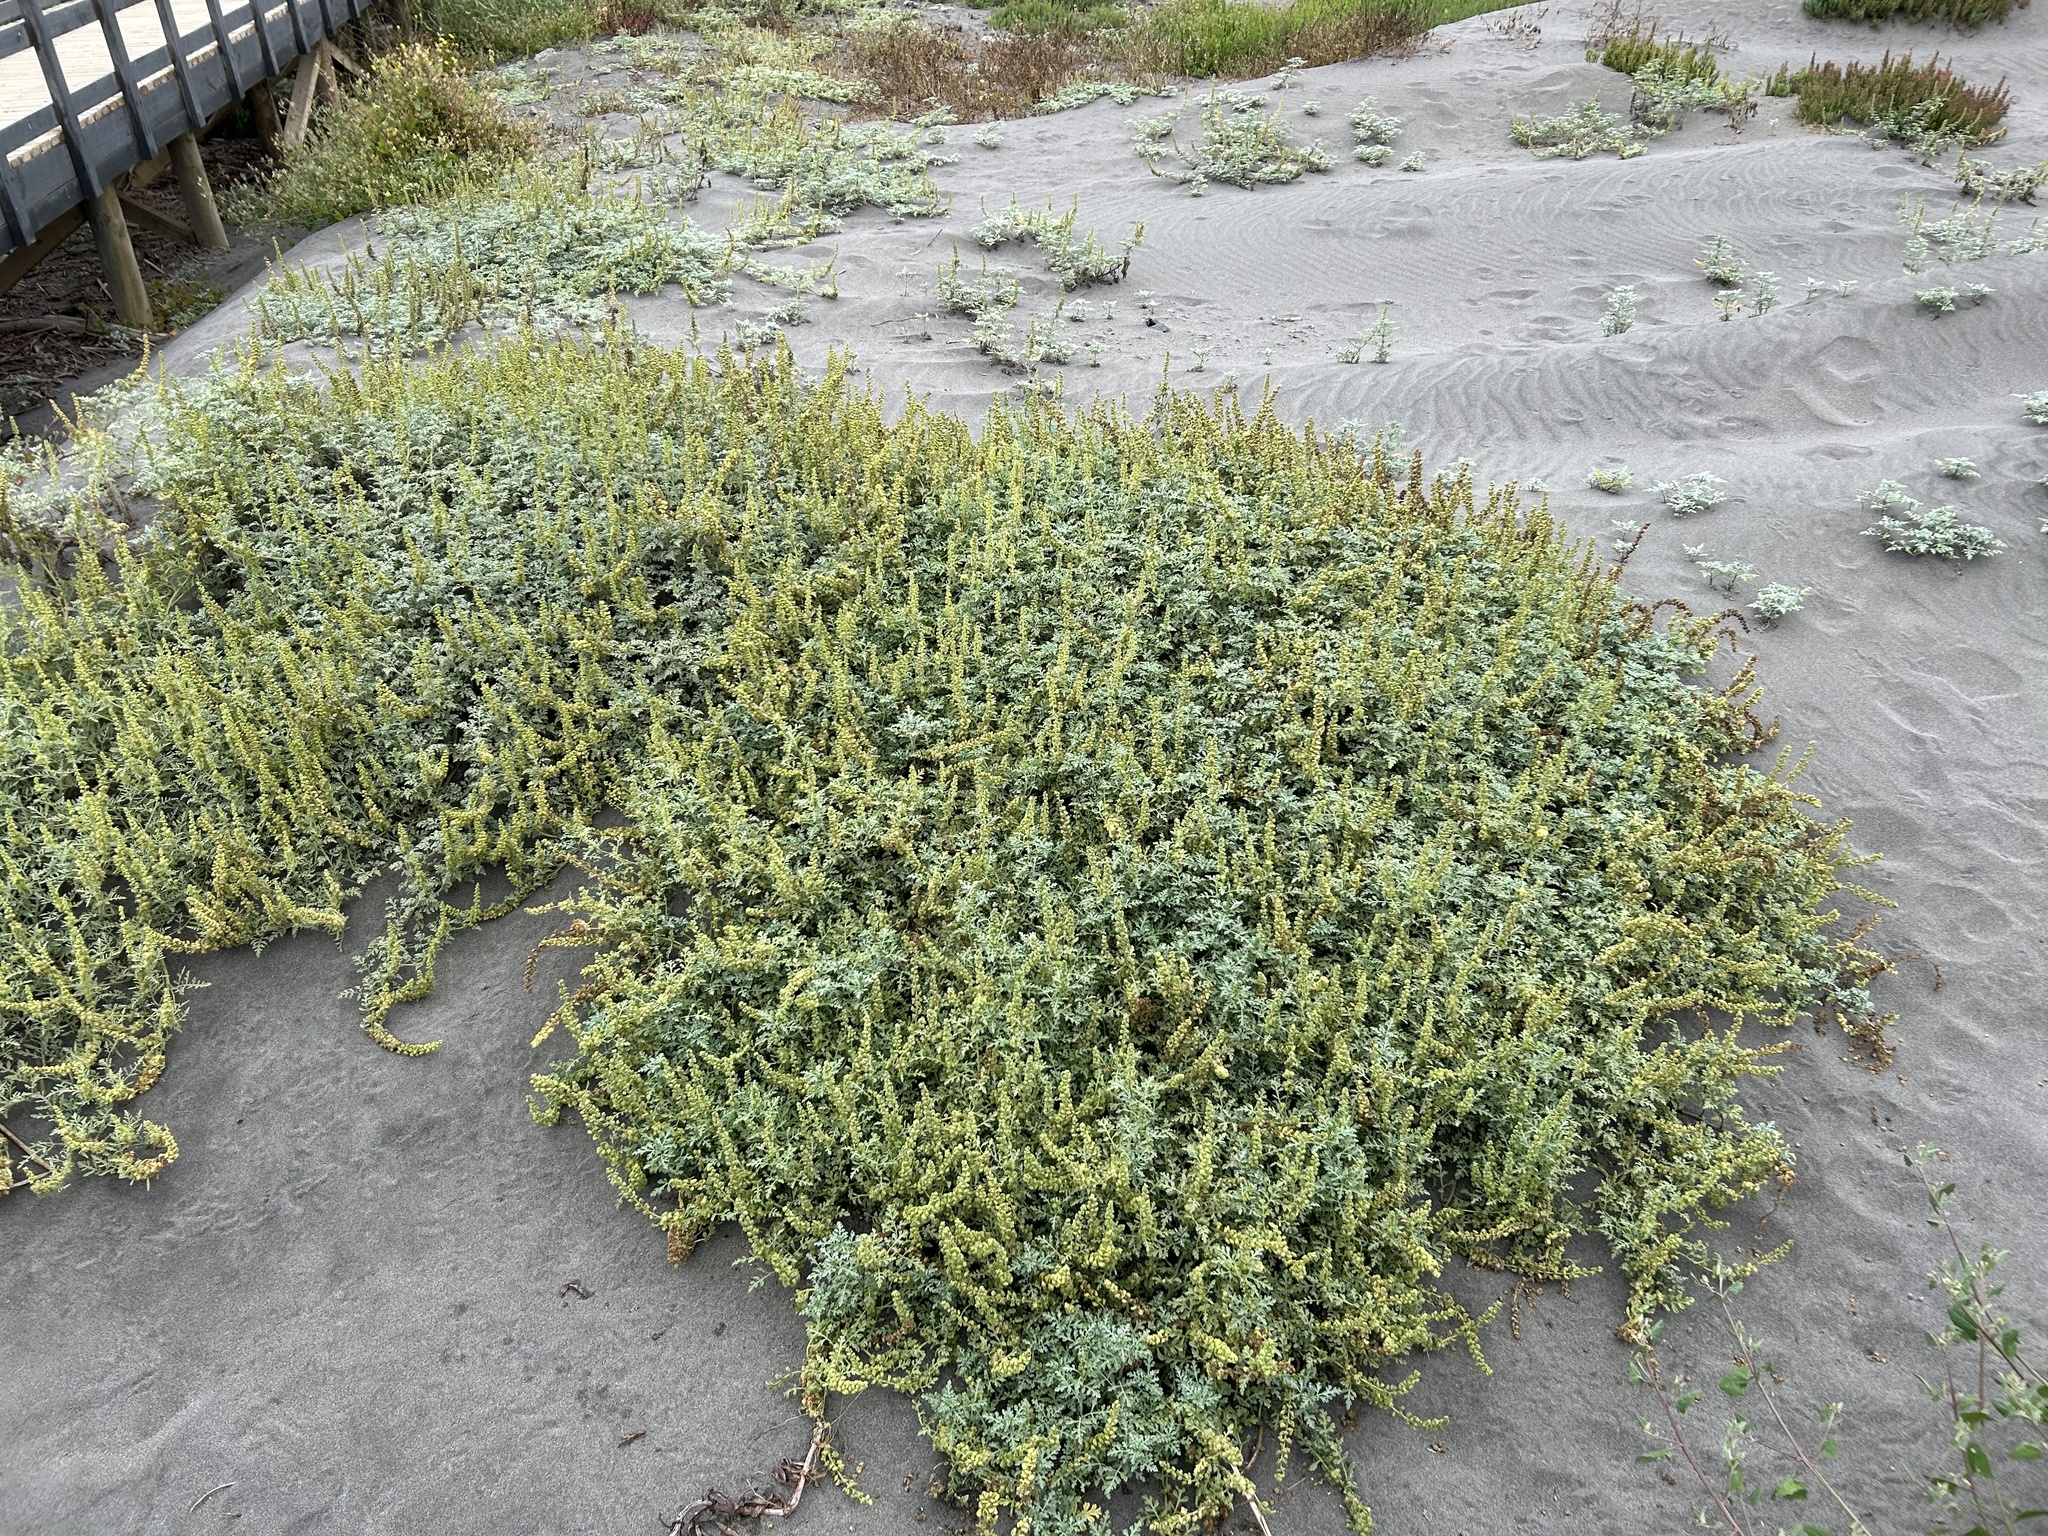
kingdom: Plantae
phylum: Tracheophyta
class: Magnoliopsida
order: Asterales
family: Asteraceae
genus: Ambrosia
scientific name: Ambrosia chamissonis
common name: Beachbur
